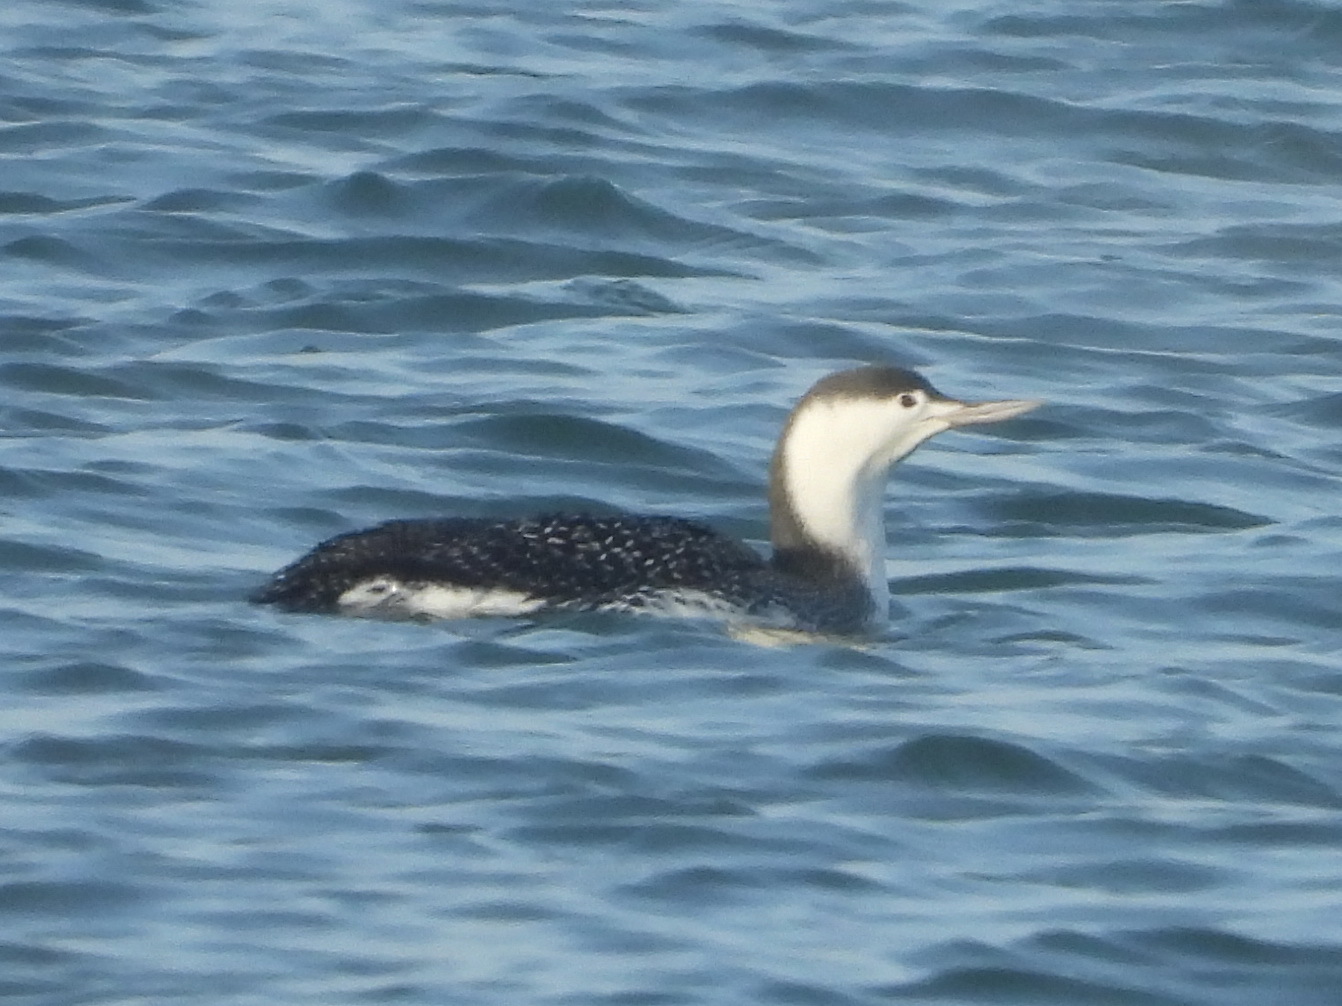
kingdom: Animalia
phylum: Chordata
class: Aves
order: Gaviiformes
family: Gaviidae
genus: Gavia
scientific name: Gavia stellata
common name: Red-throated loon
